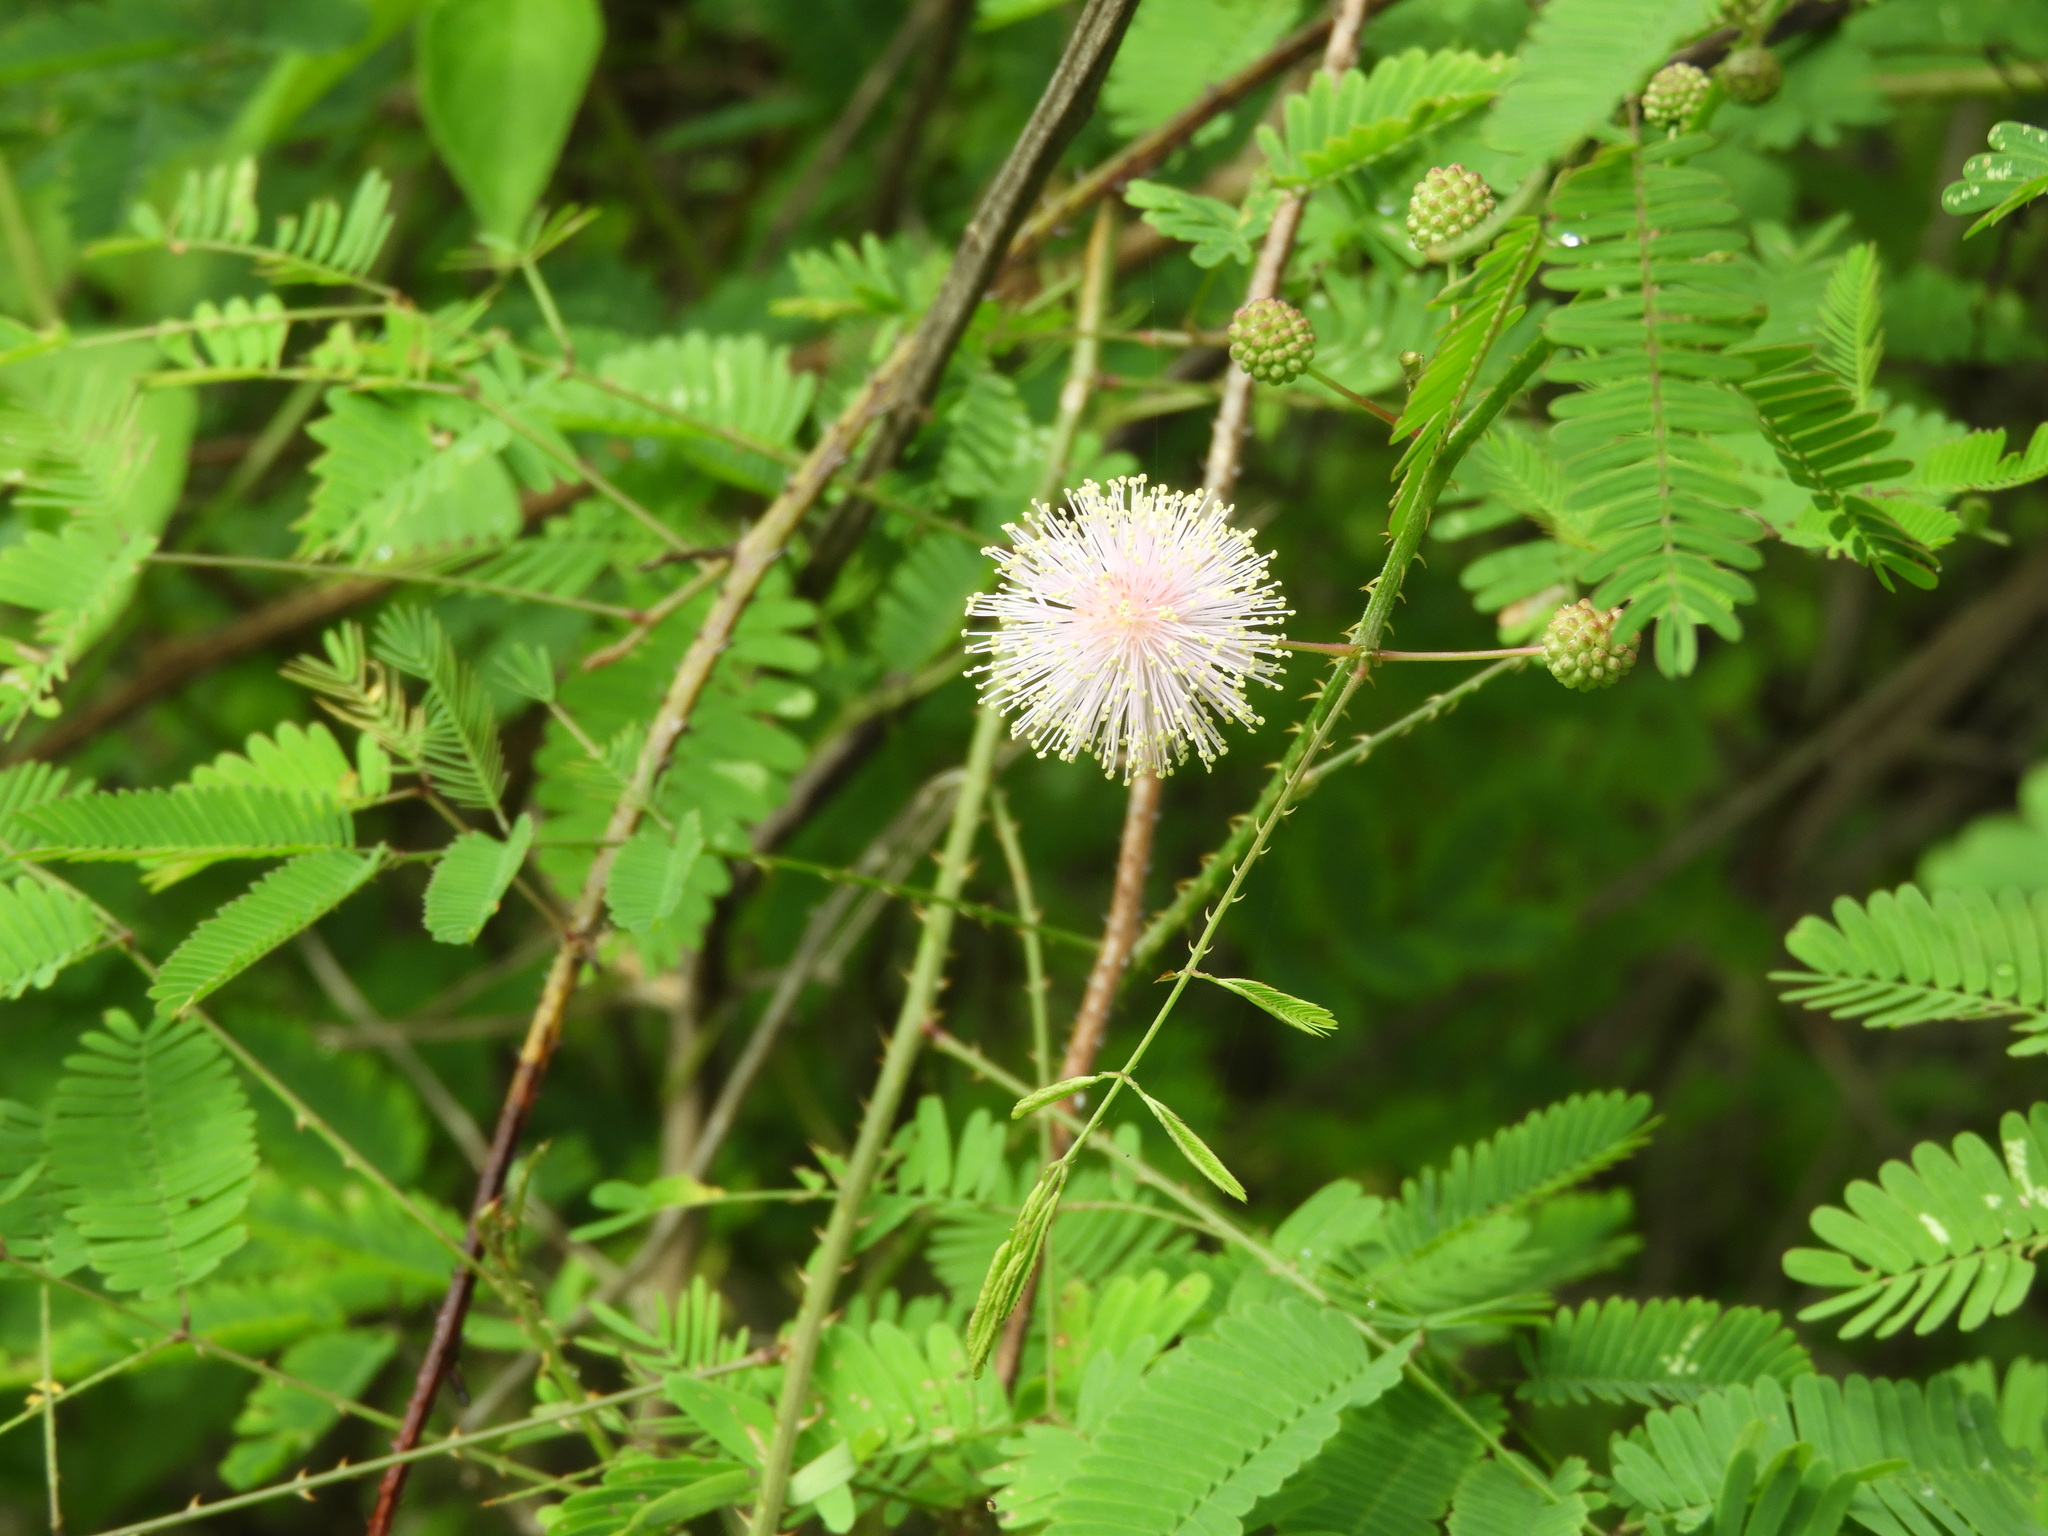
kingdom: Plantae
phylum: Tracheophyta
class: Magnoliopsida
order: Fabales
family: Fabaceae
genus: Mimosa
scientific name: Mimosa quadrivalvis
